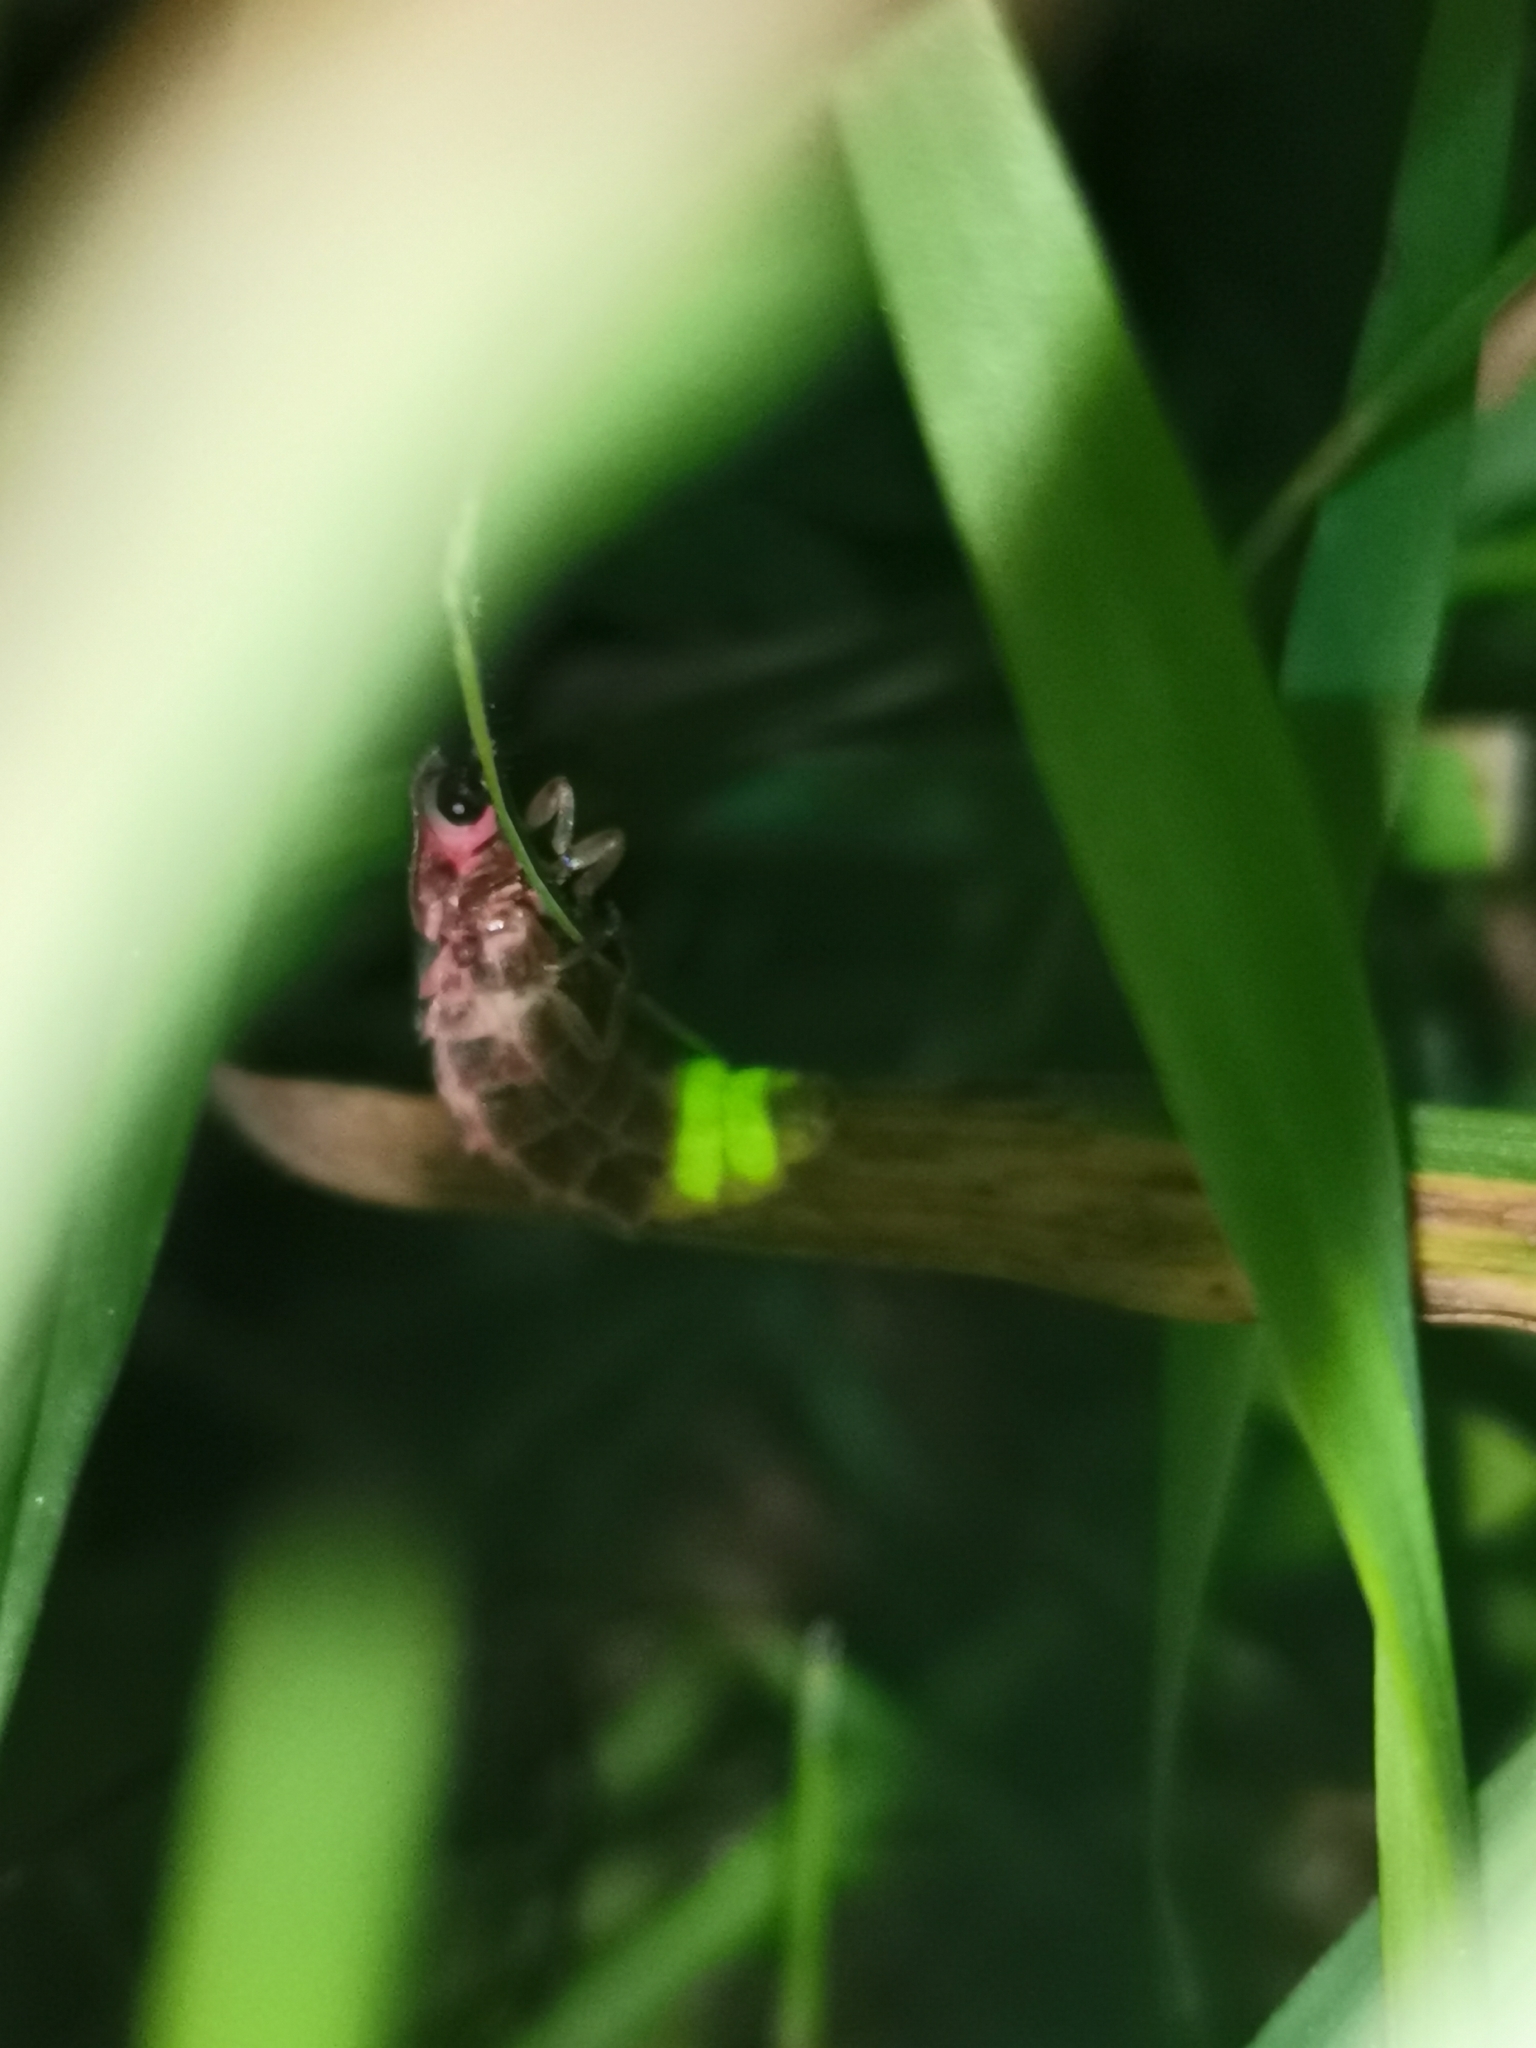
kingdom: Animalia
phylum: Arthropoda
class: Insecta
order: Coleoptera
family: Lampyridae
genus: Lampyris
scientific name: Lampyris noctiluca
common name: Glow-worm
